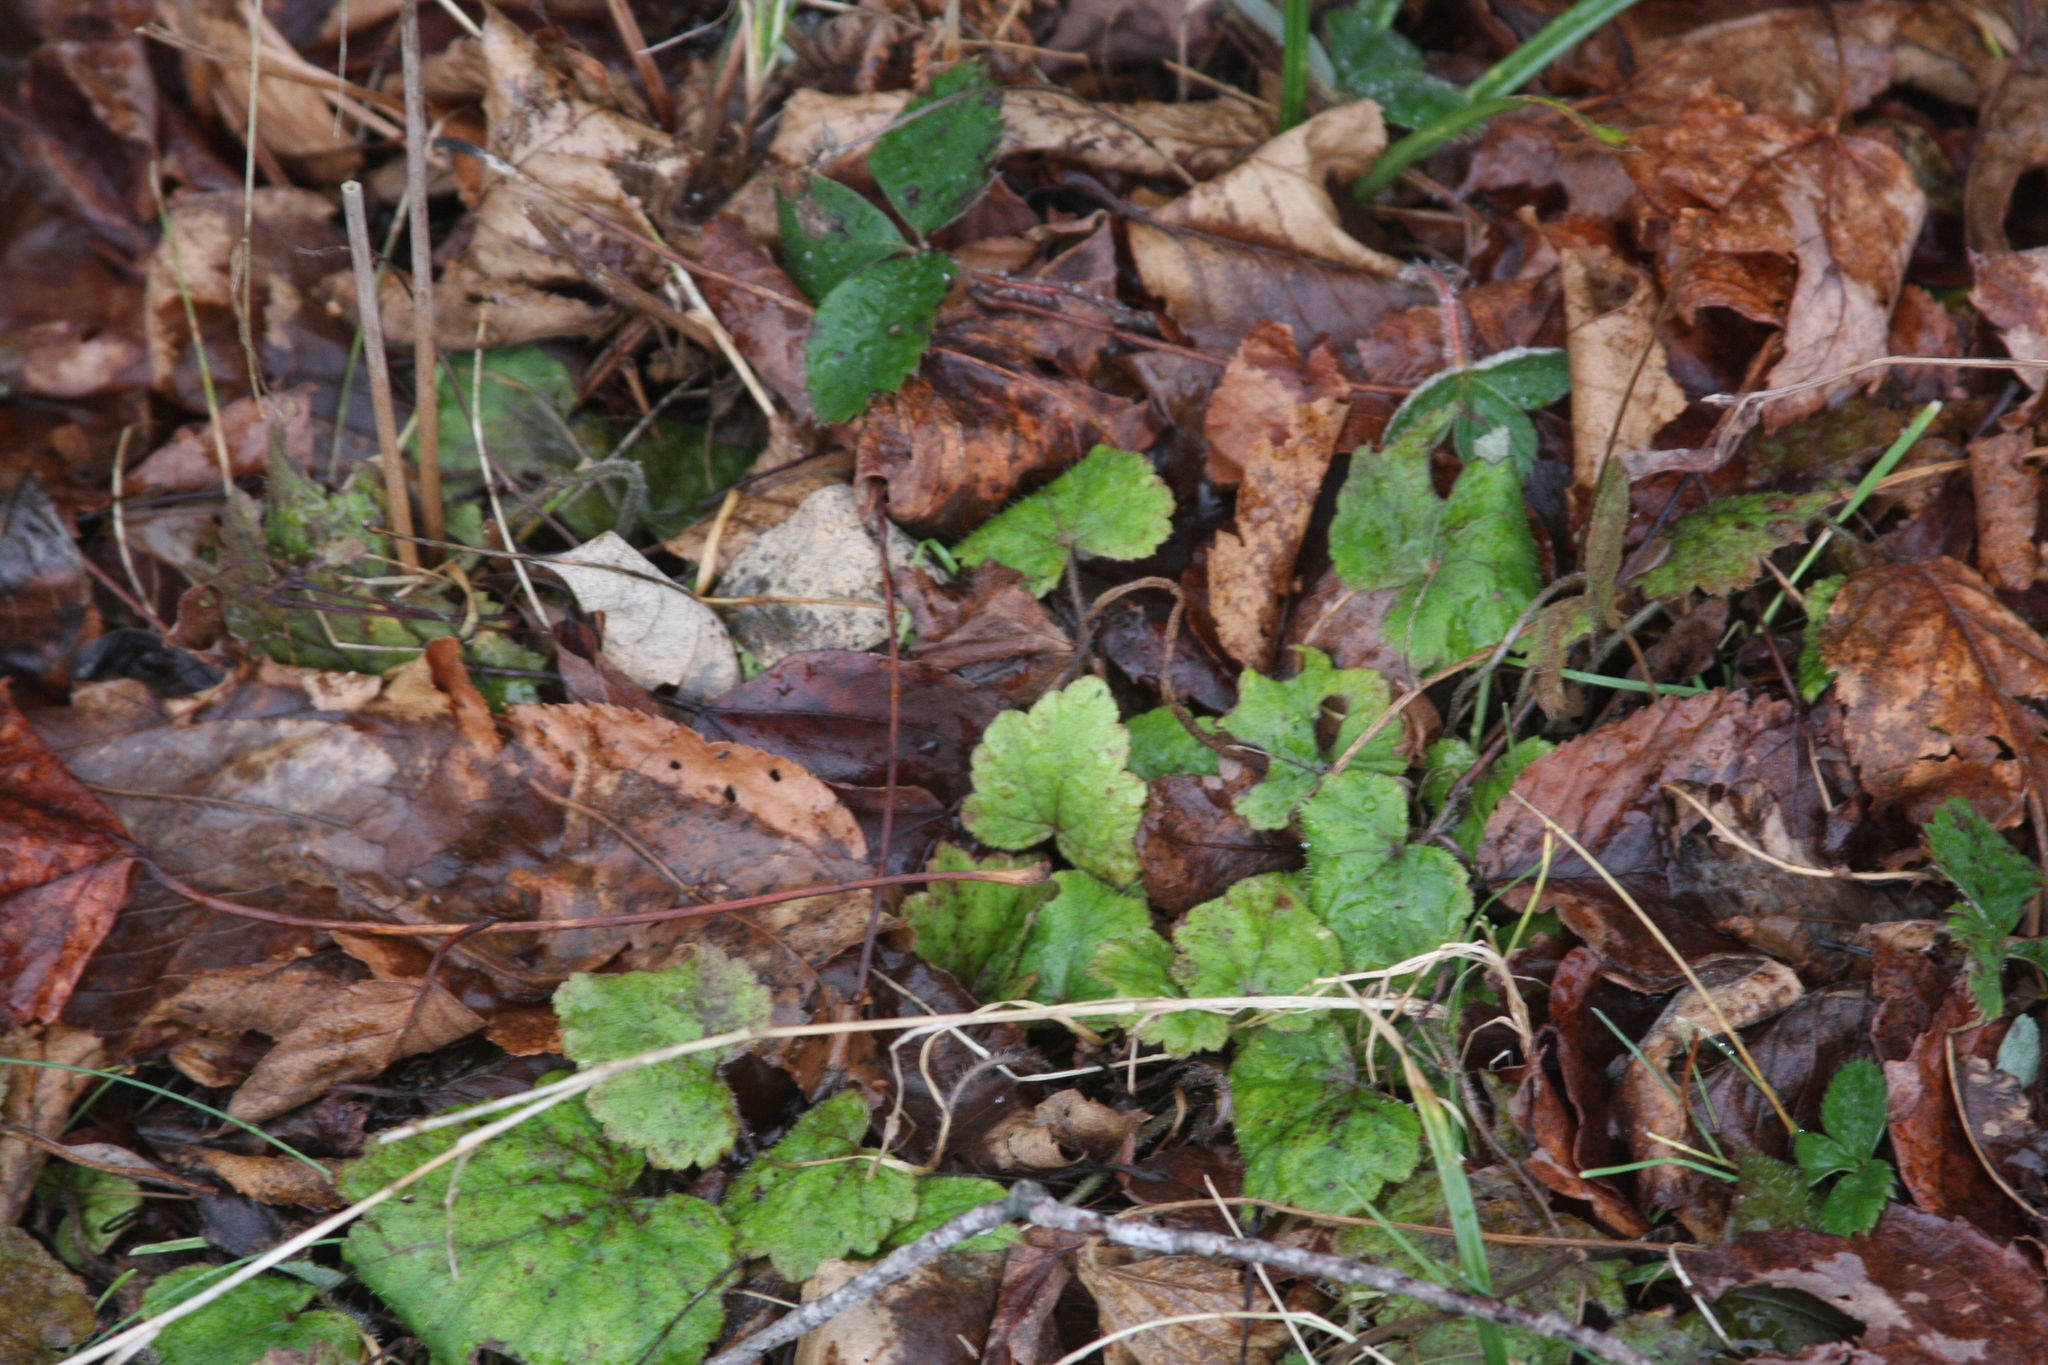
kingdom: Plantae
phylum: Tracheophyta
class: Magnoliopsida
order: Saxifragales
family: Saxifragaceae
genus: Tiarella
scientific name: Tiarella stolonifera
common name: Stoloniferous foamflower
